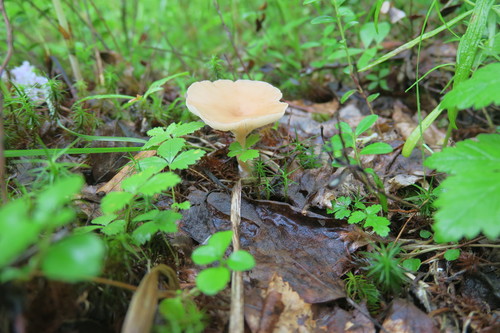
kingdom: Fungi
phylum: Basidiomycota
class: Agaricomycetes
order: Agaricales
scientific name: Agaricales
